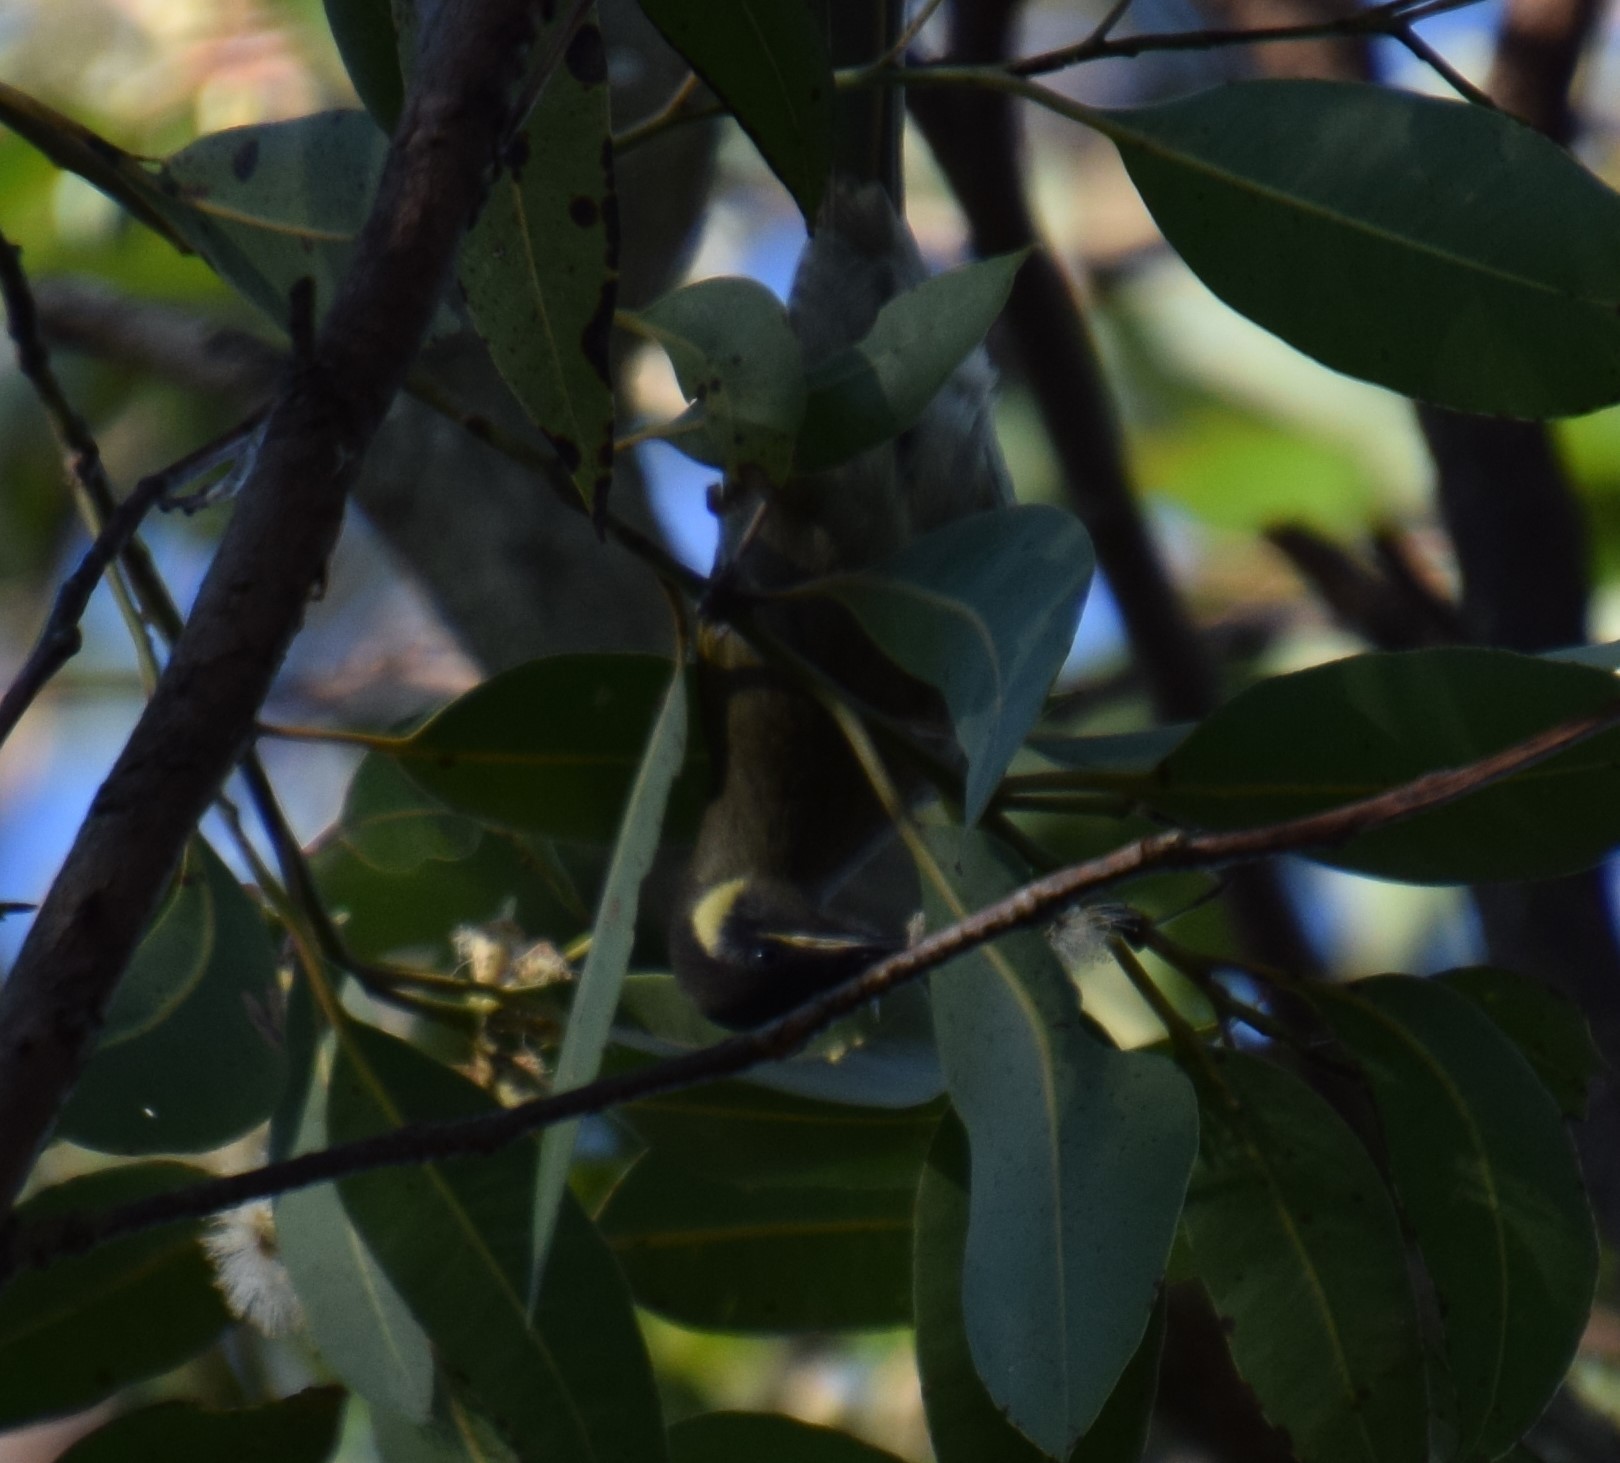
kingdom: Animalia
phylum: Chordata
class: Aves
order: Passeriformes
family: Meliphagidae
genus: Meliphaga
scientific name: Meliphaga lewinii
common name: Lewin's honeyeater
